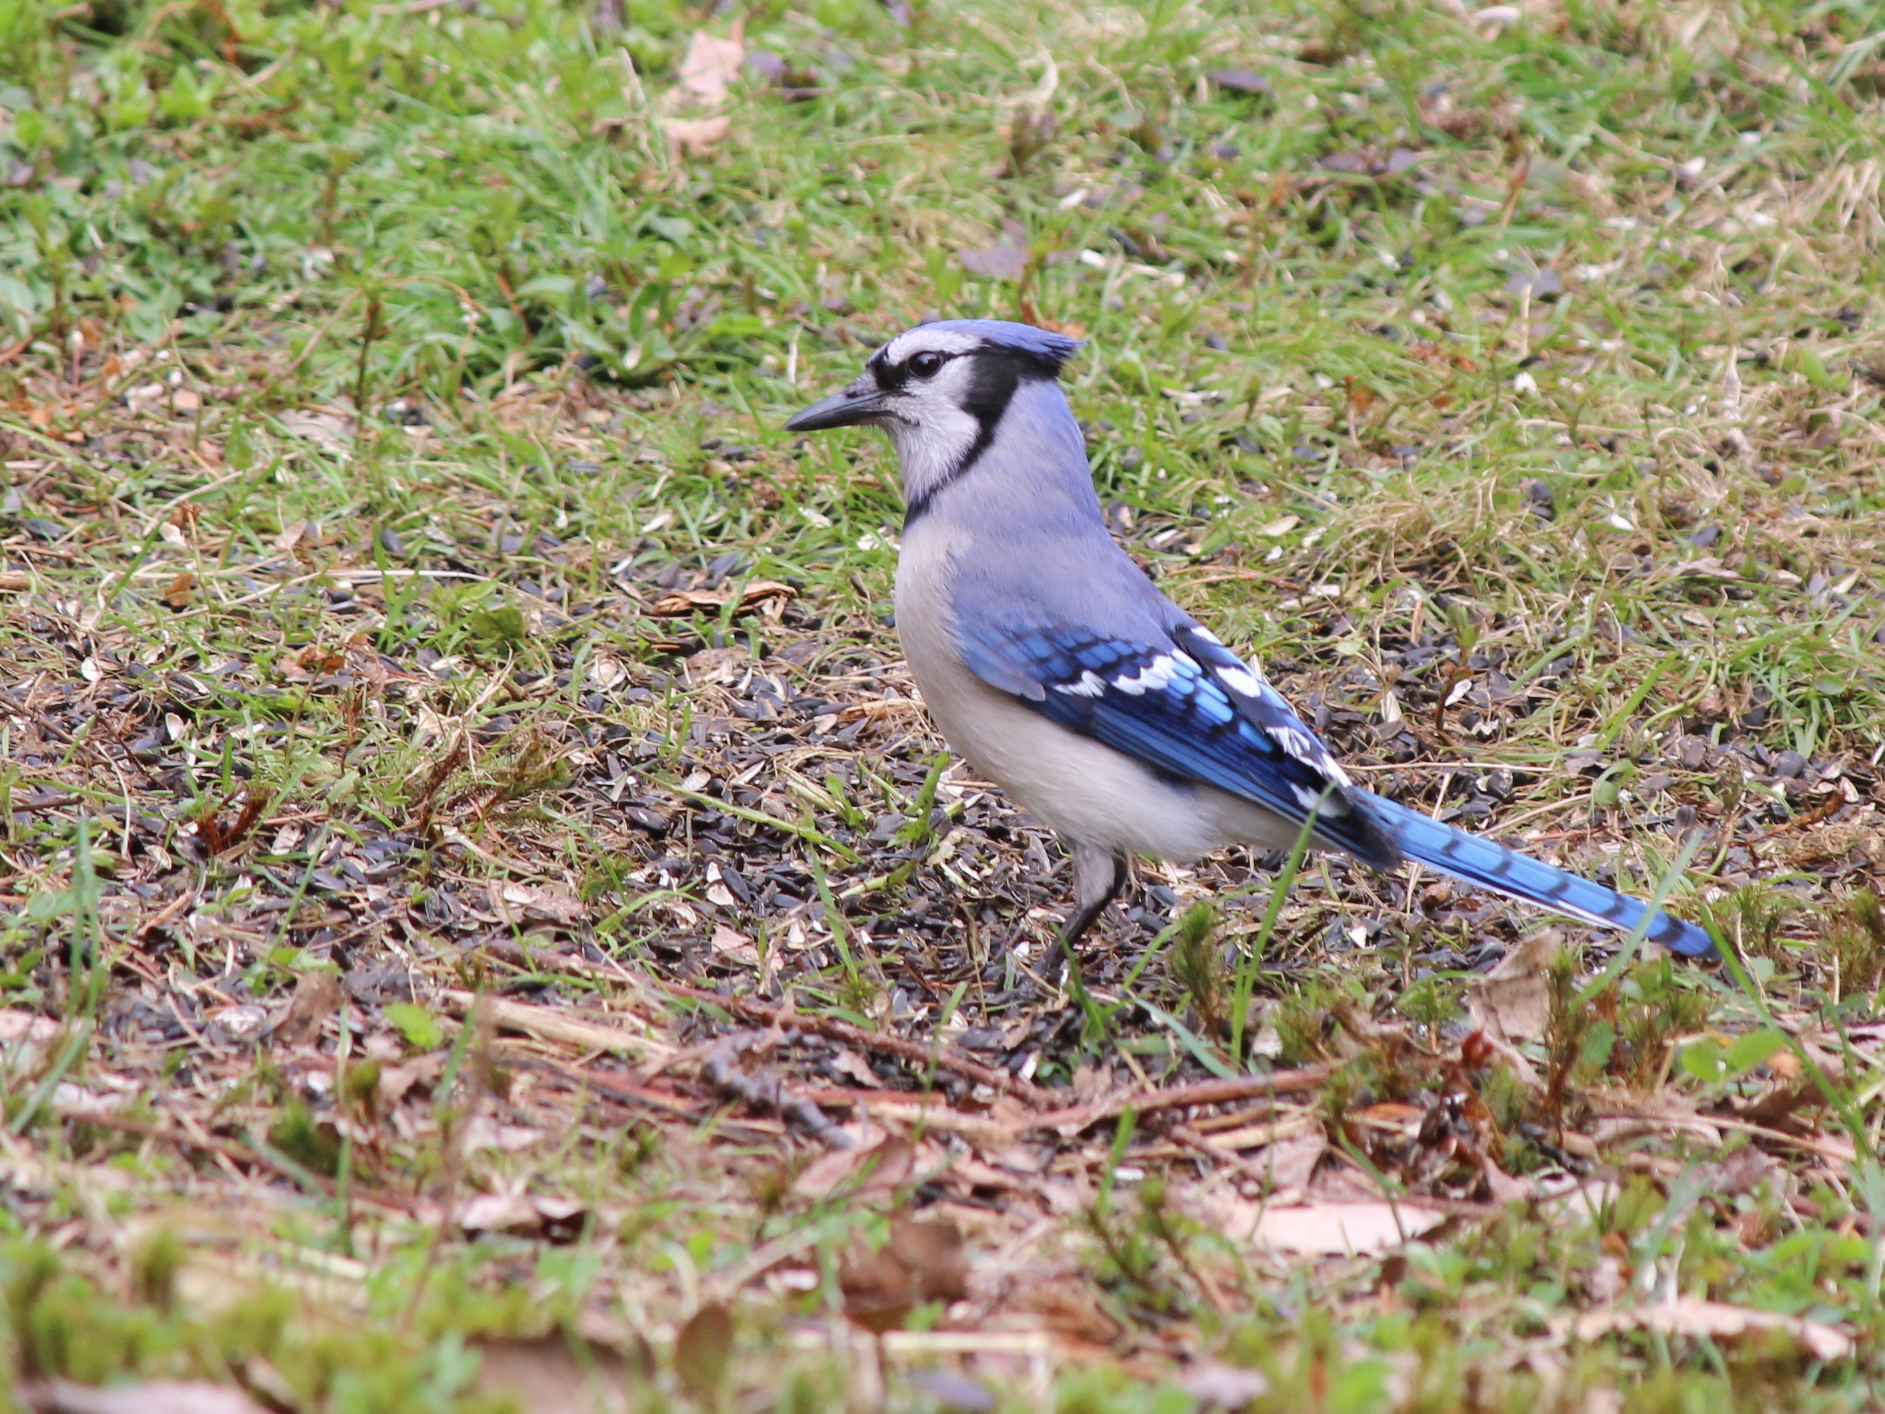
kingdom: Animalia
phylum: Chordata
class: Aves
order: Passeriformes
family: Corvidae
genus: Cyanocitta
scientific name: Cyanocitta cristata
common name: Blue jay
